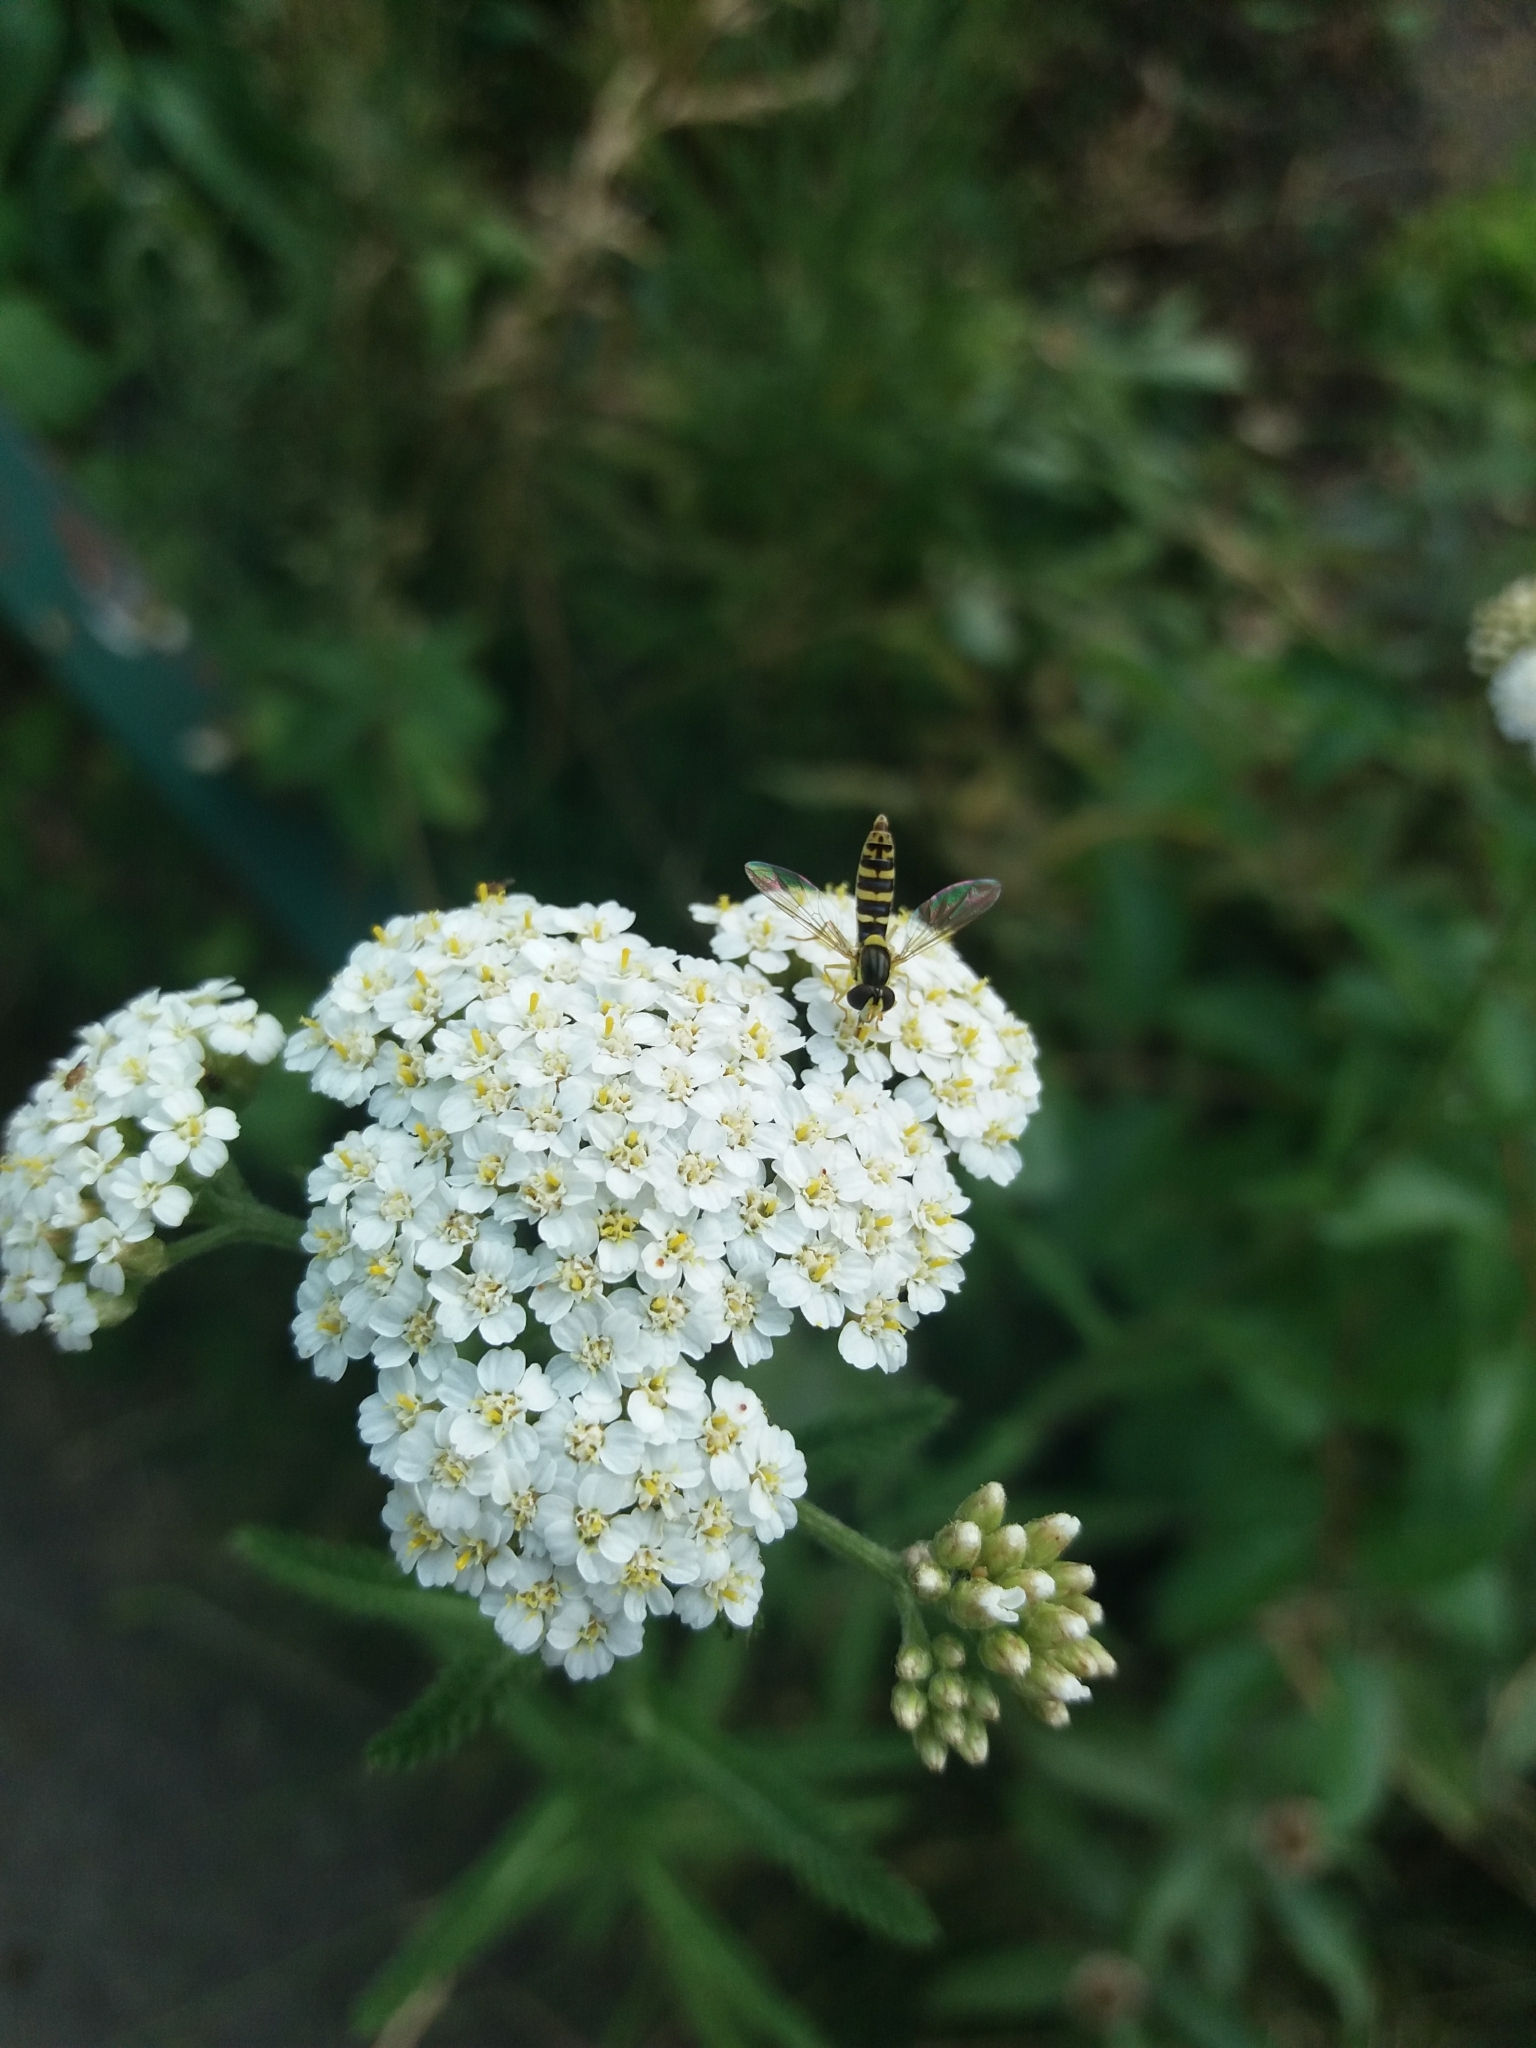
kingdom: Animalia
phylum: Arthropoda
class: Insecta
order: Diptera
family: Syrphidae
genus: Sphaerophoria
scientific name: Sphaerophoria
